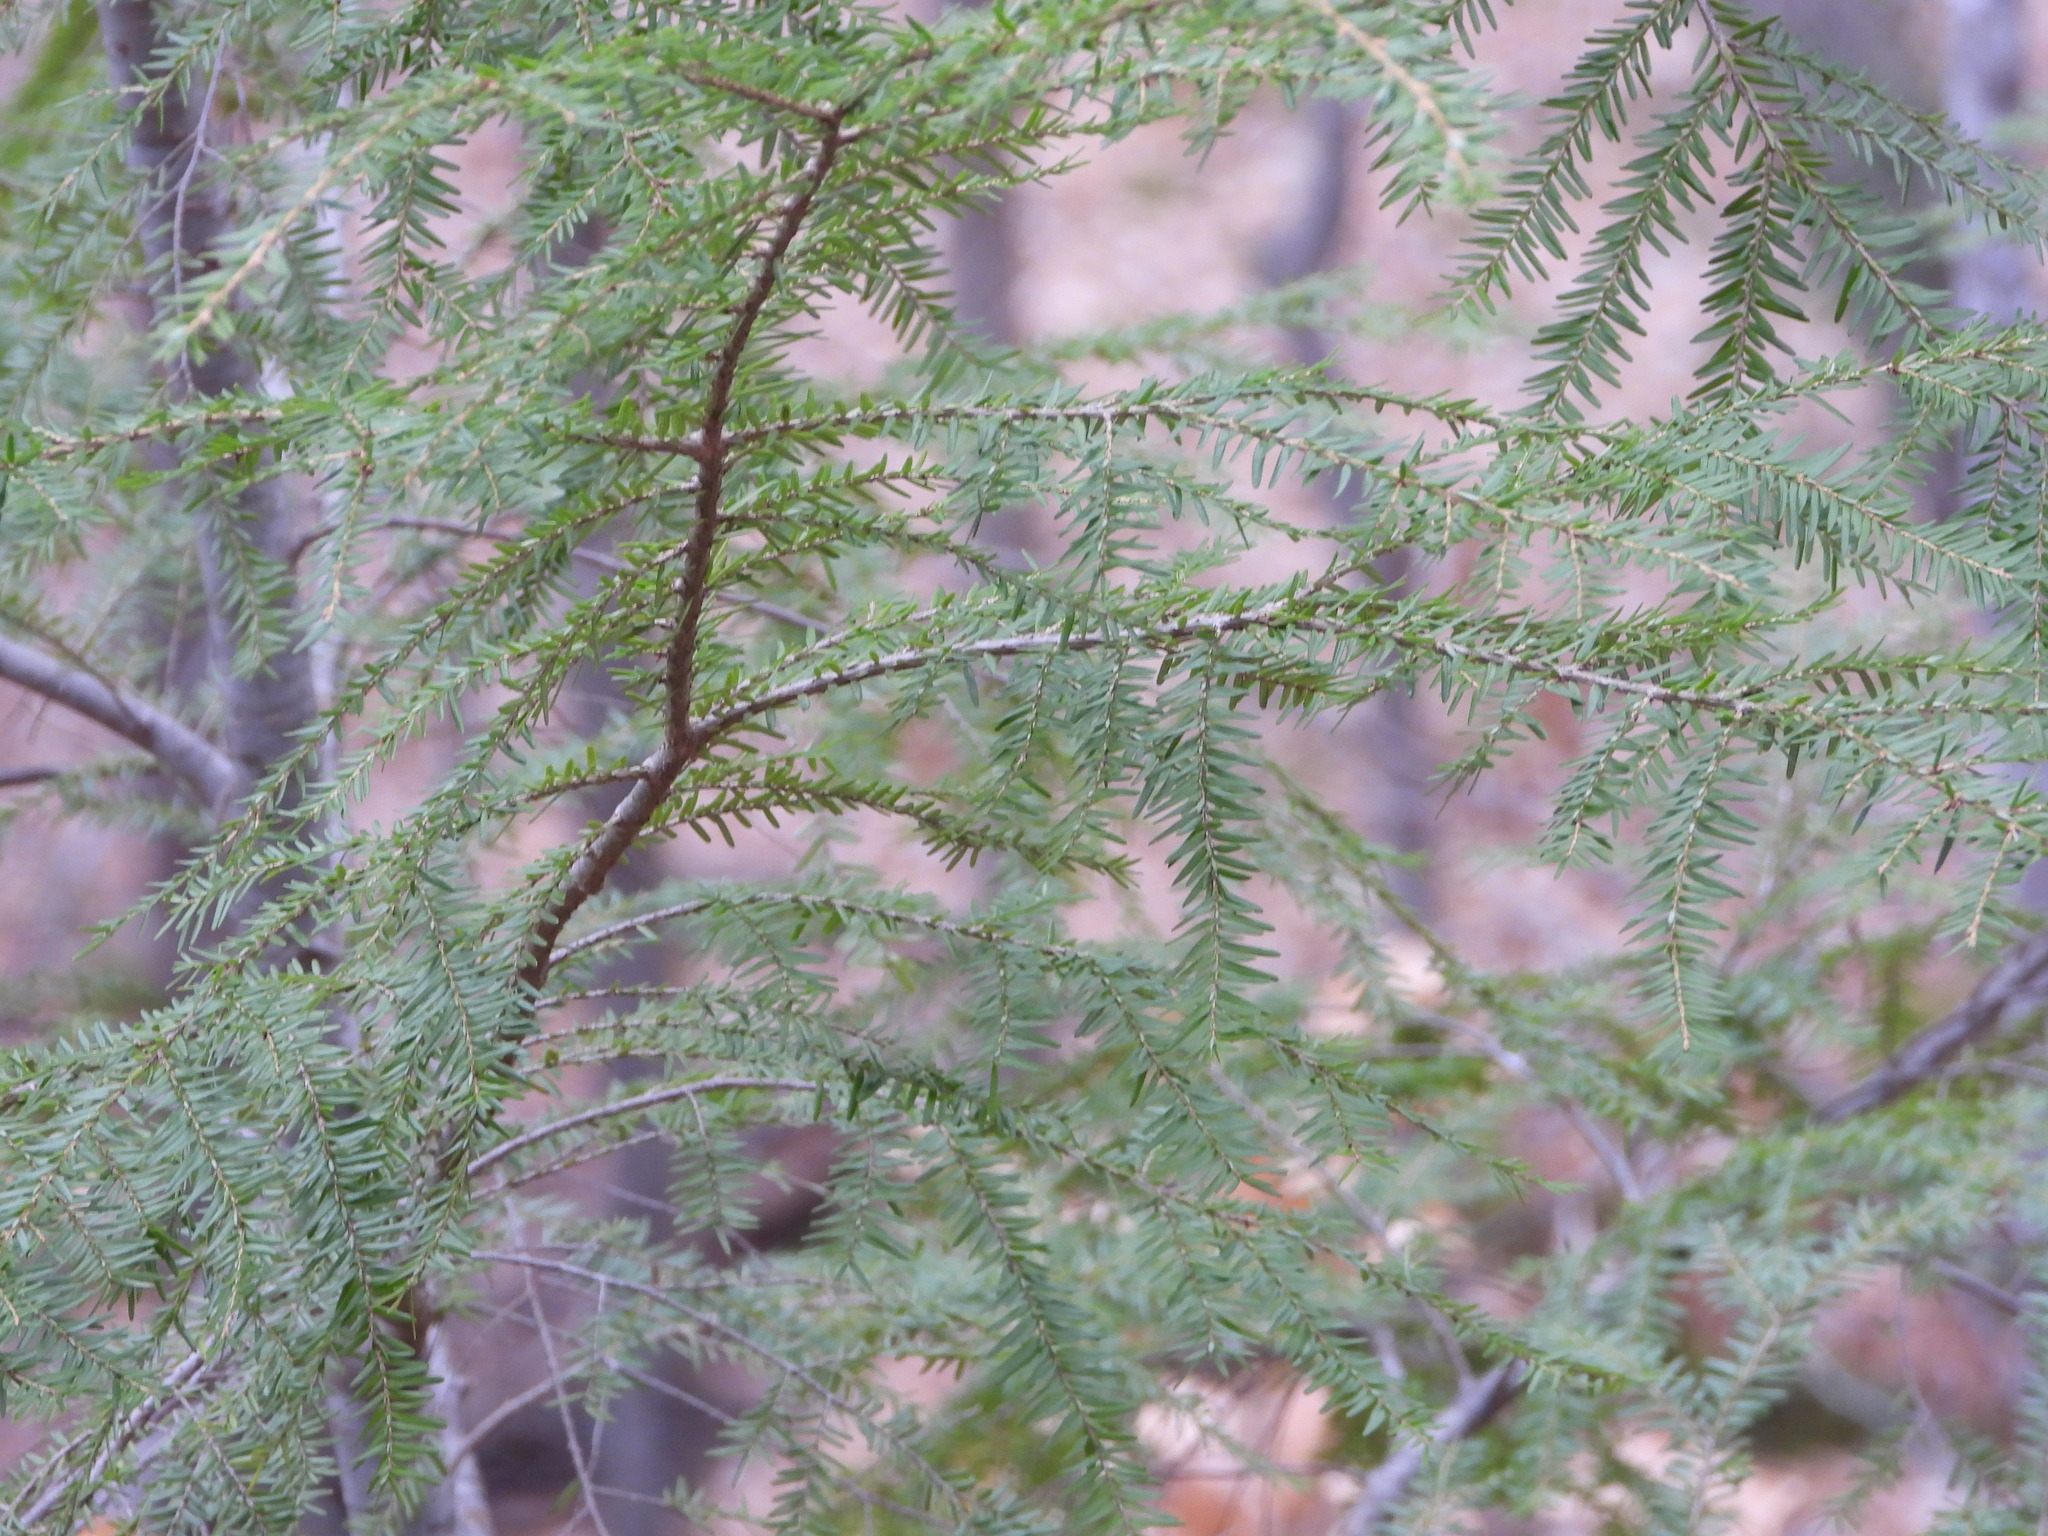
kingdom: Plantae
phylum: Tracheophyta
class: Pinopsida
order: Pinales
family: Pinaceae
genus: Tsuga
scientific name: Tsuga canadensis
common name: Eastern hemlock
